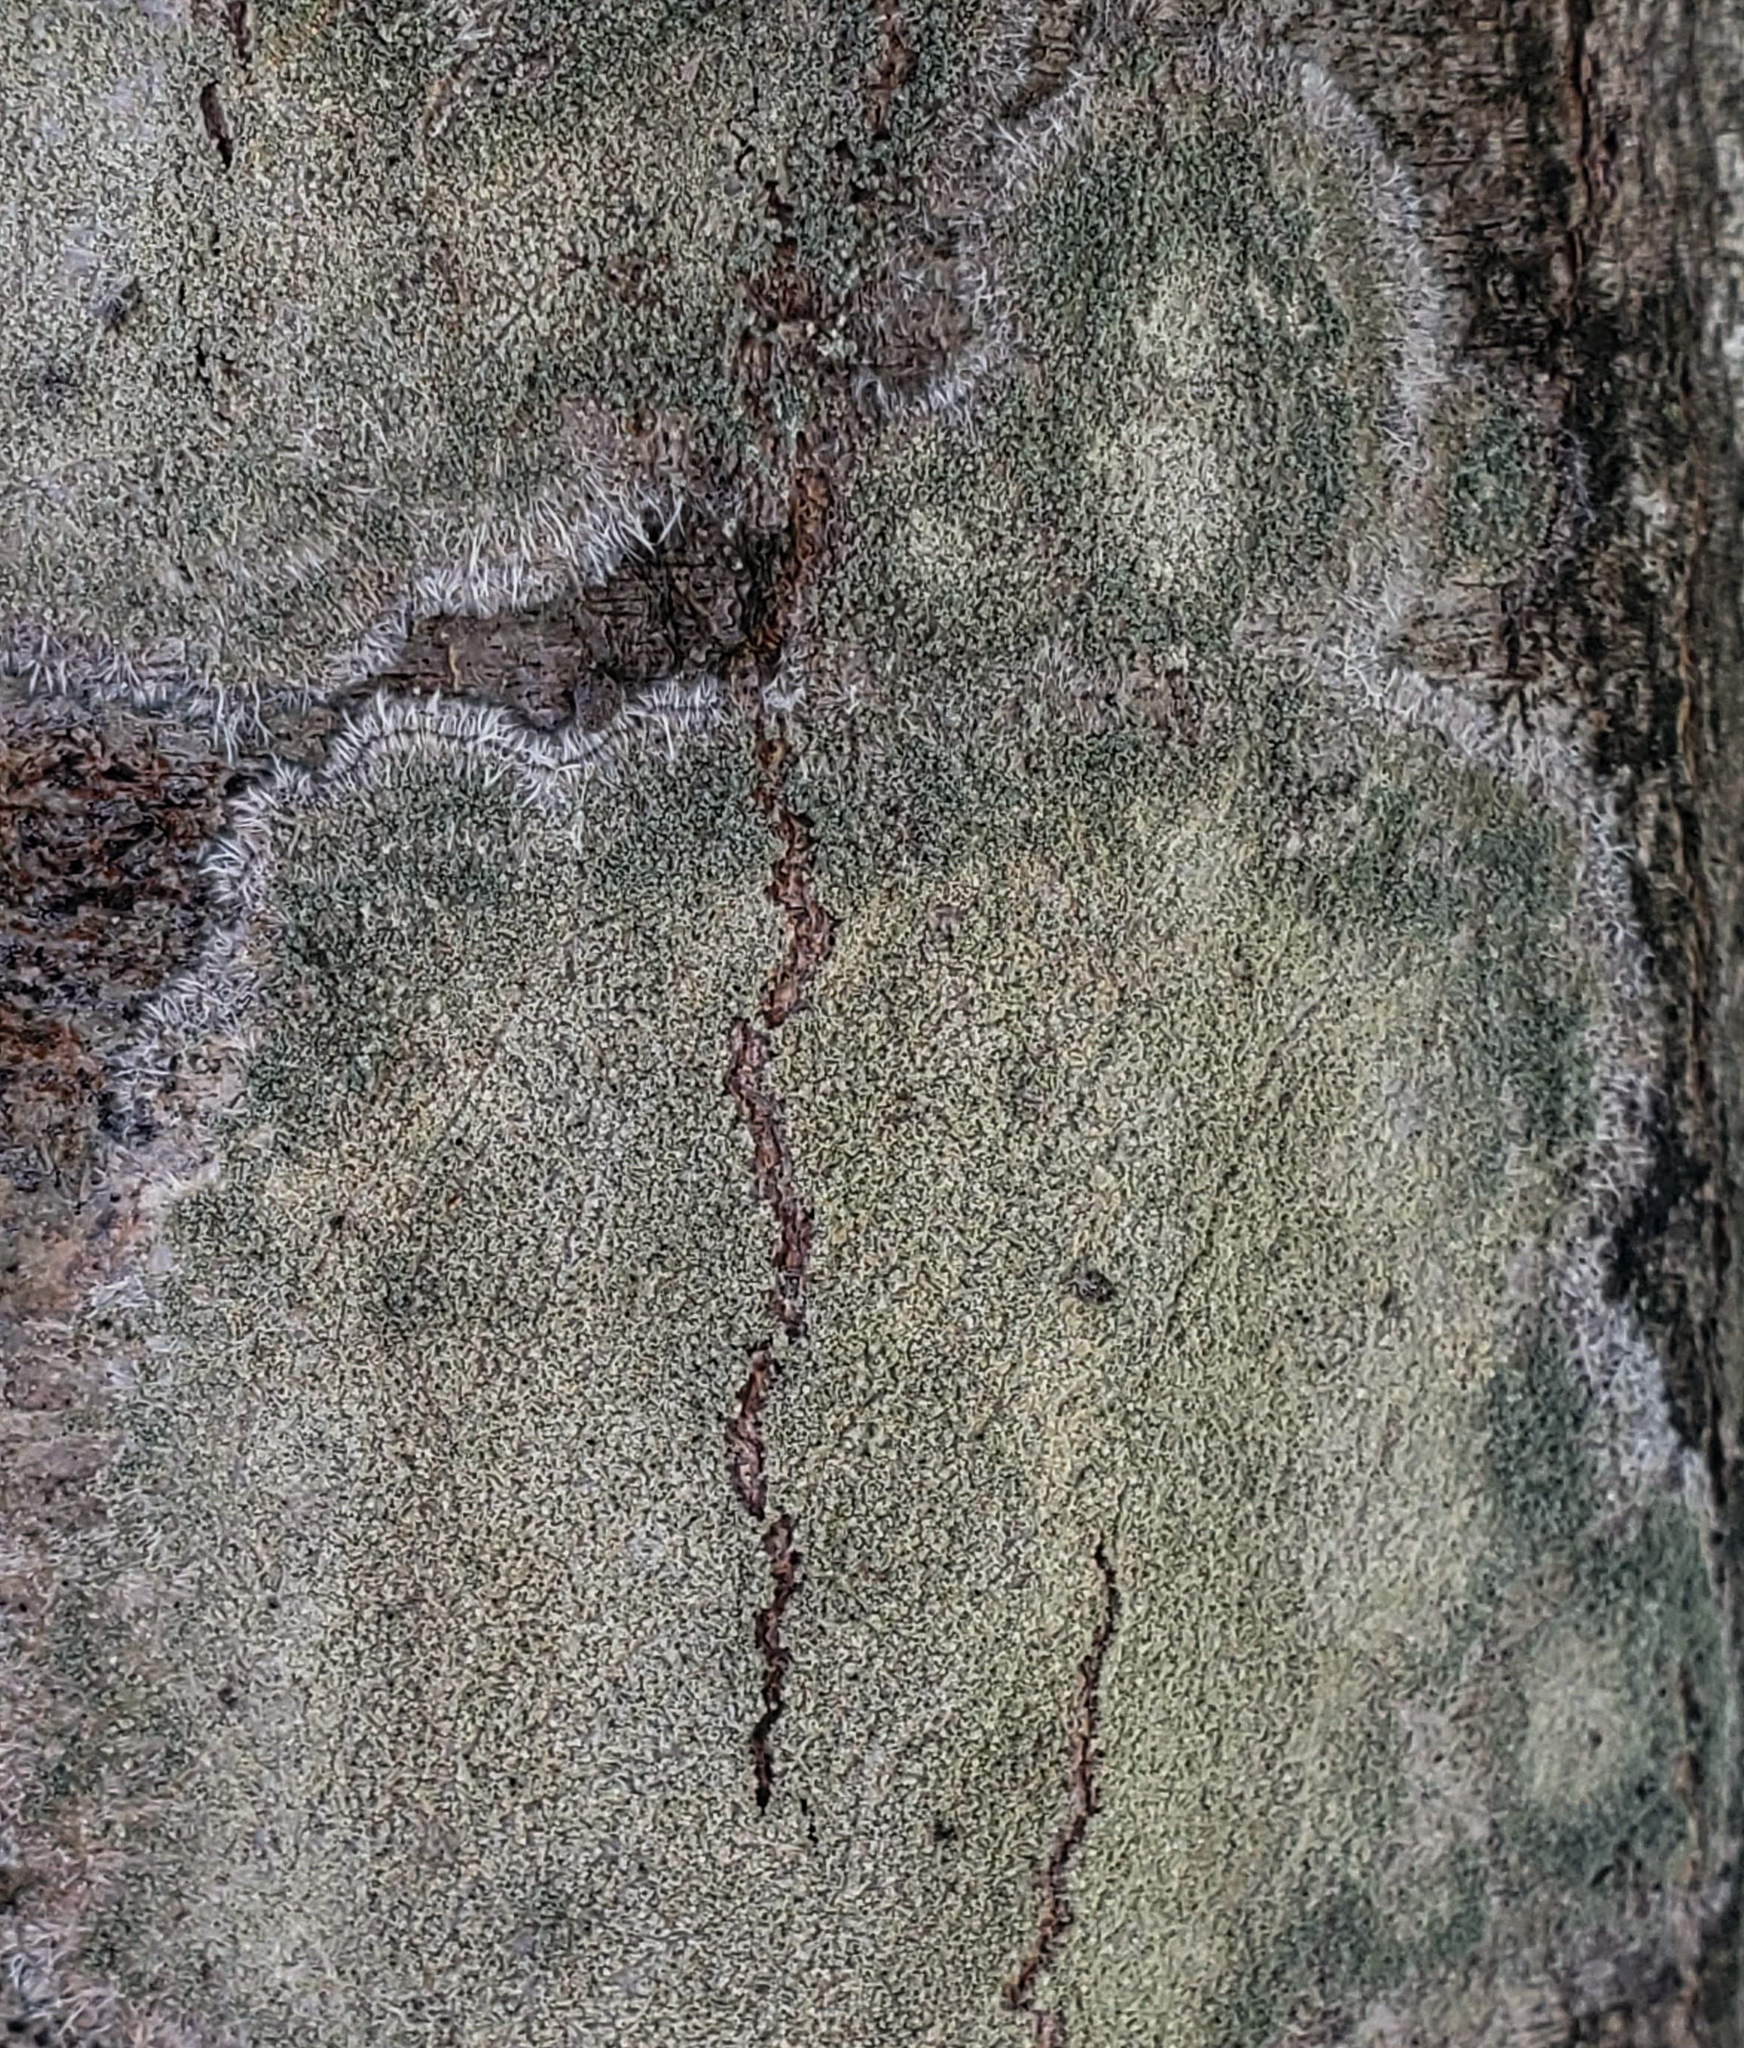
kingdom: Fungi
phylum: Ascomycota
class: Lecanoromycetes
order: Pertusariales
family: Pertusariaceae
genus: Verseghya
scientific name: Verseghya thysanophora
